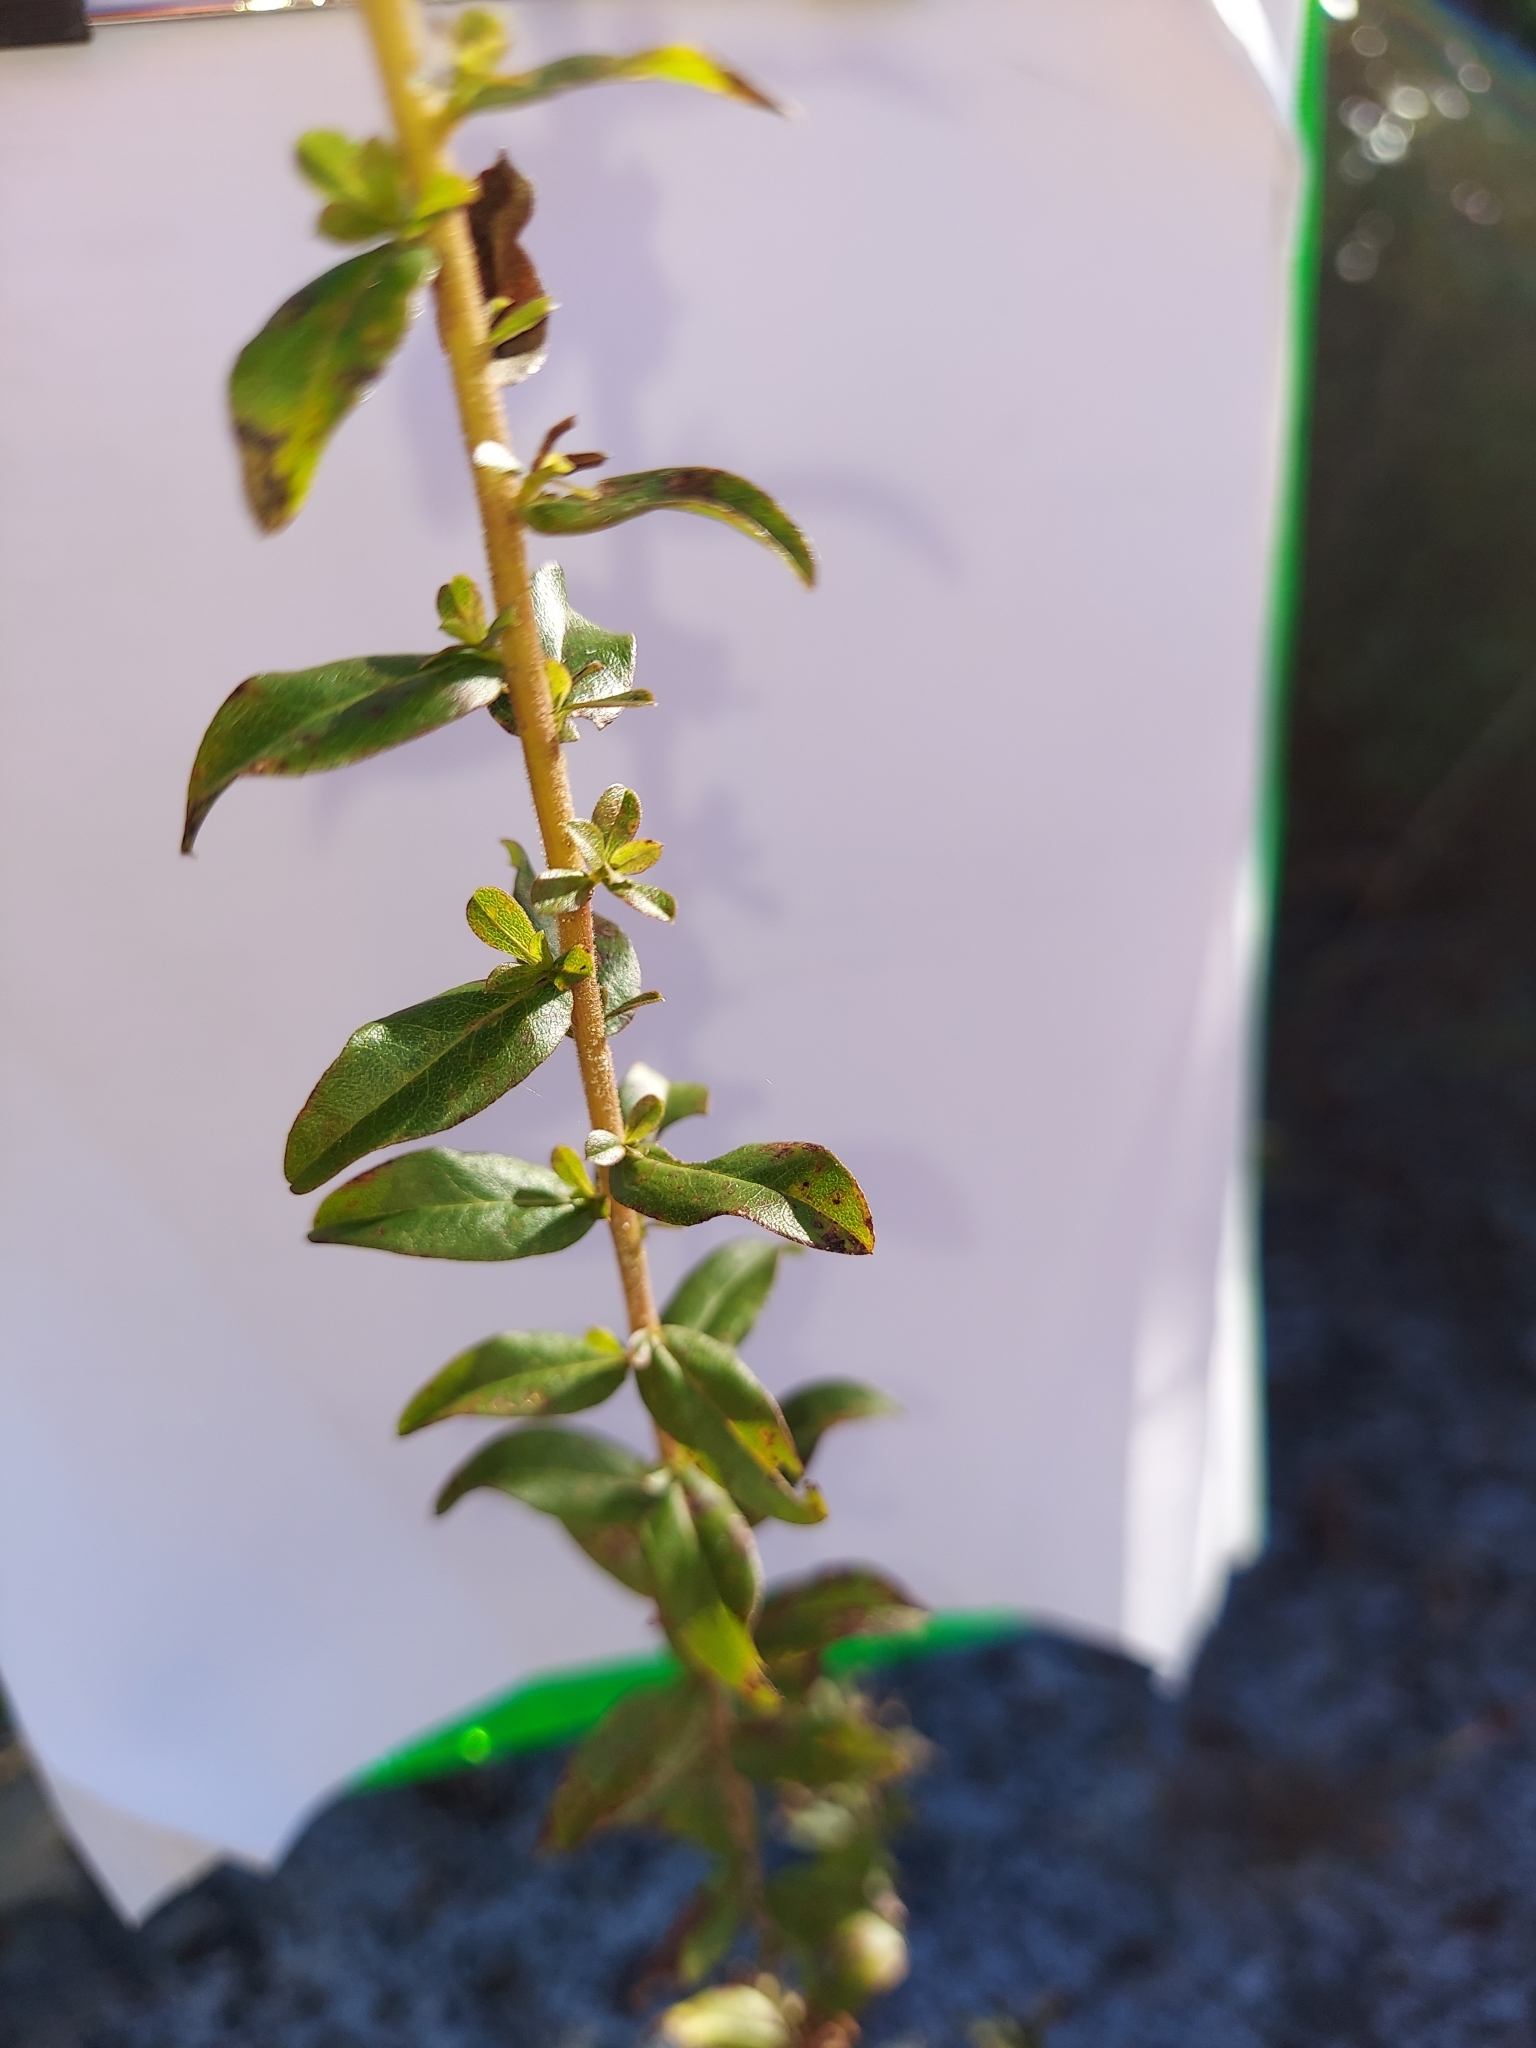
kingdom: Plantae
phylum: Tracheophyta
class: Magnoliopsida
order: Asterales
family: Asteraceae
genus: Solidago
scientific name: Solidago chapmanii
